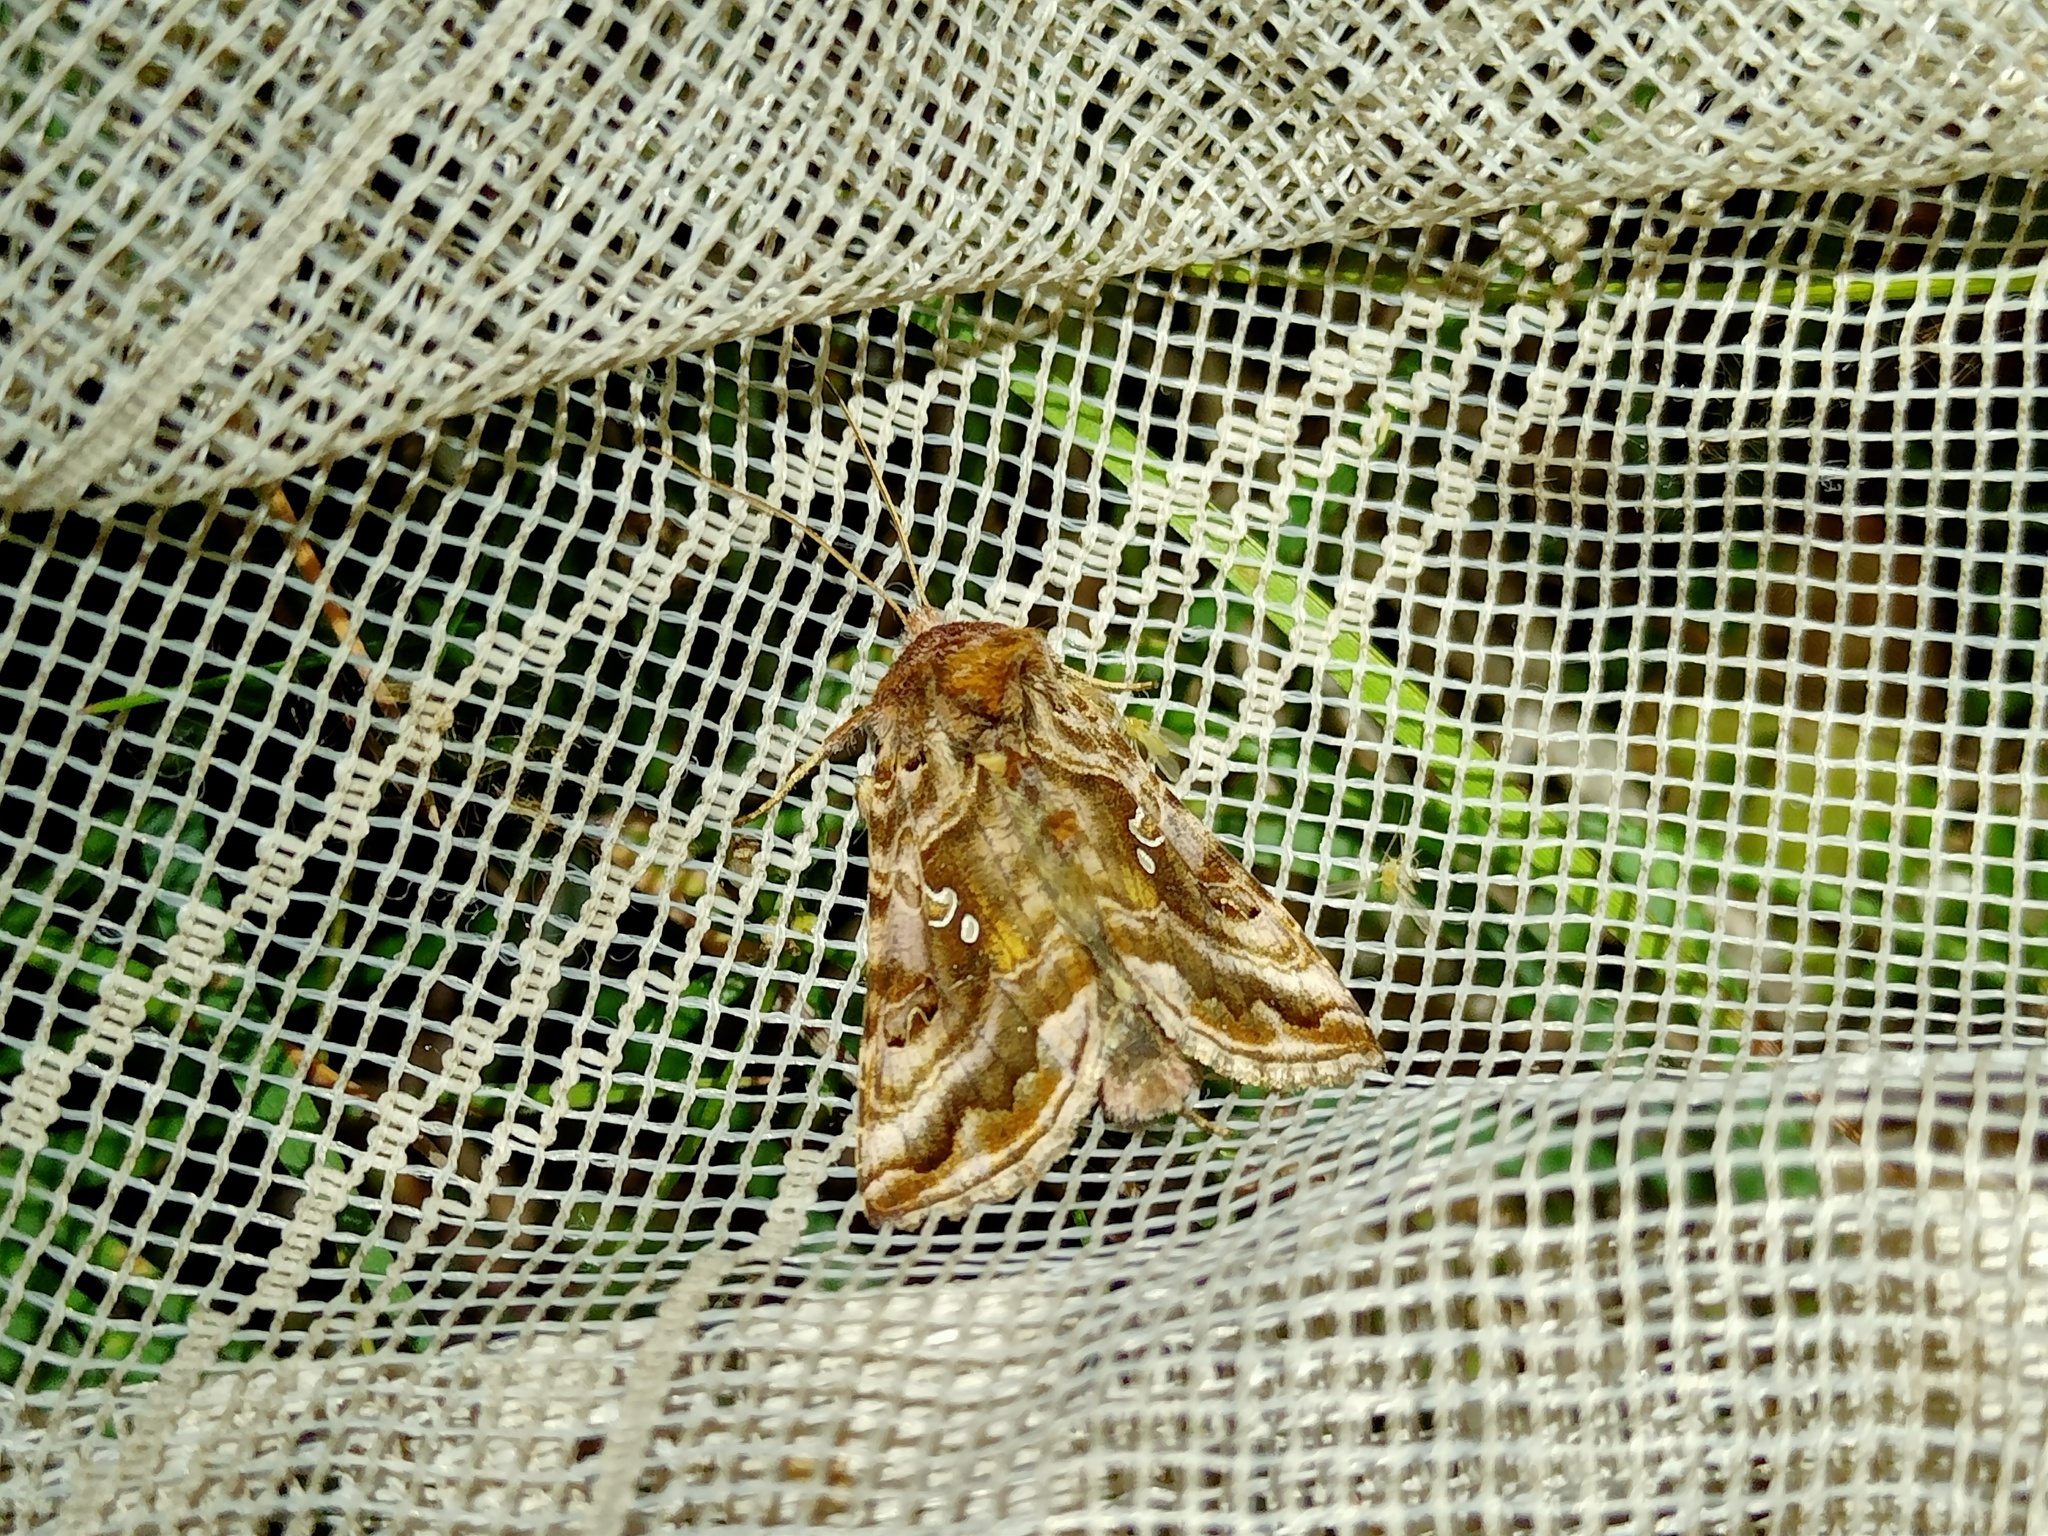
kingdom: Animalia
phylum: Arthropoda
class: Insecta
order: Lepidoptera
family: Noctuidae
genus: Autographa
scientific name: Autographa pulchrina
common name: Beautiful golden y
